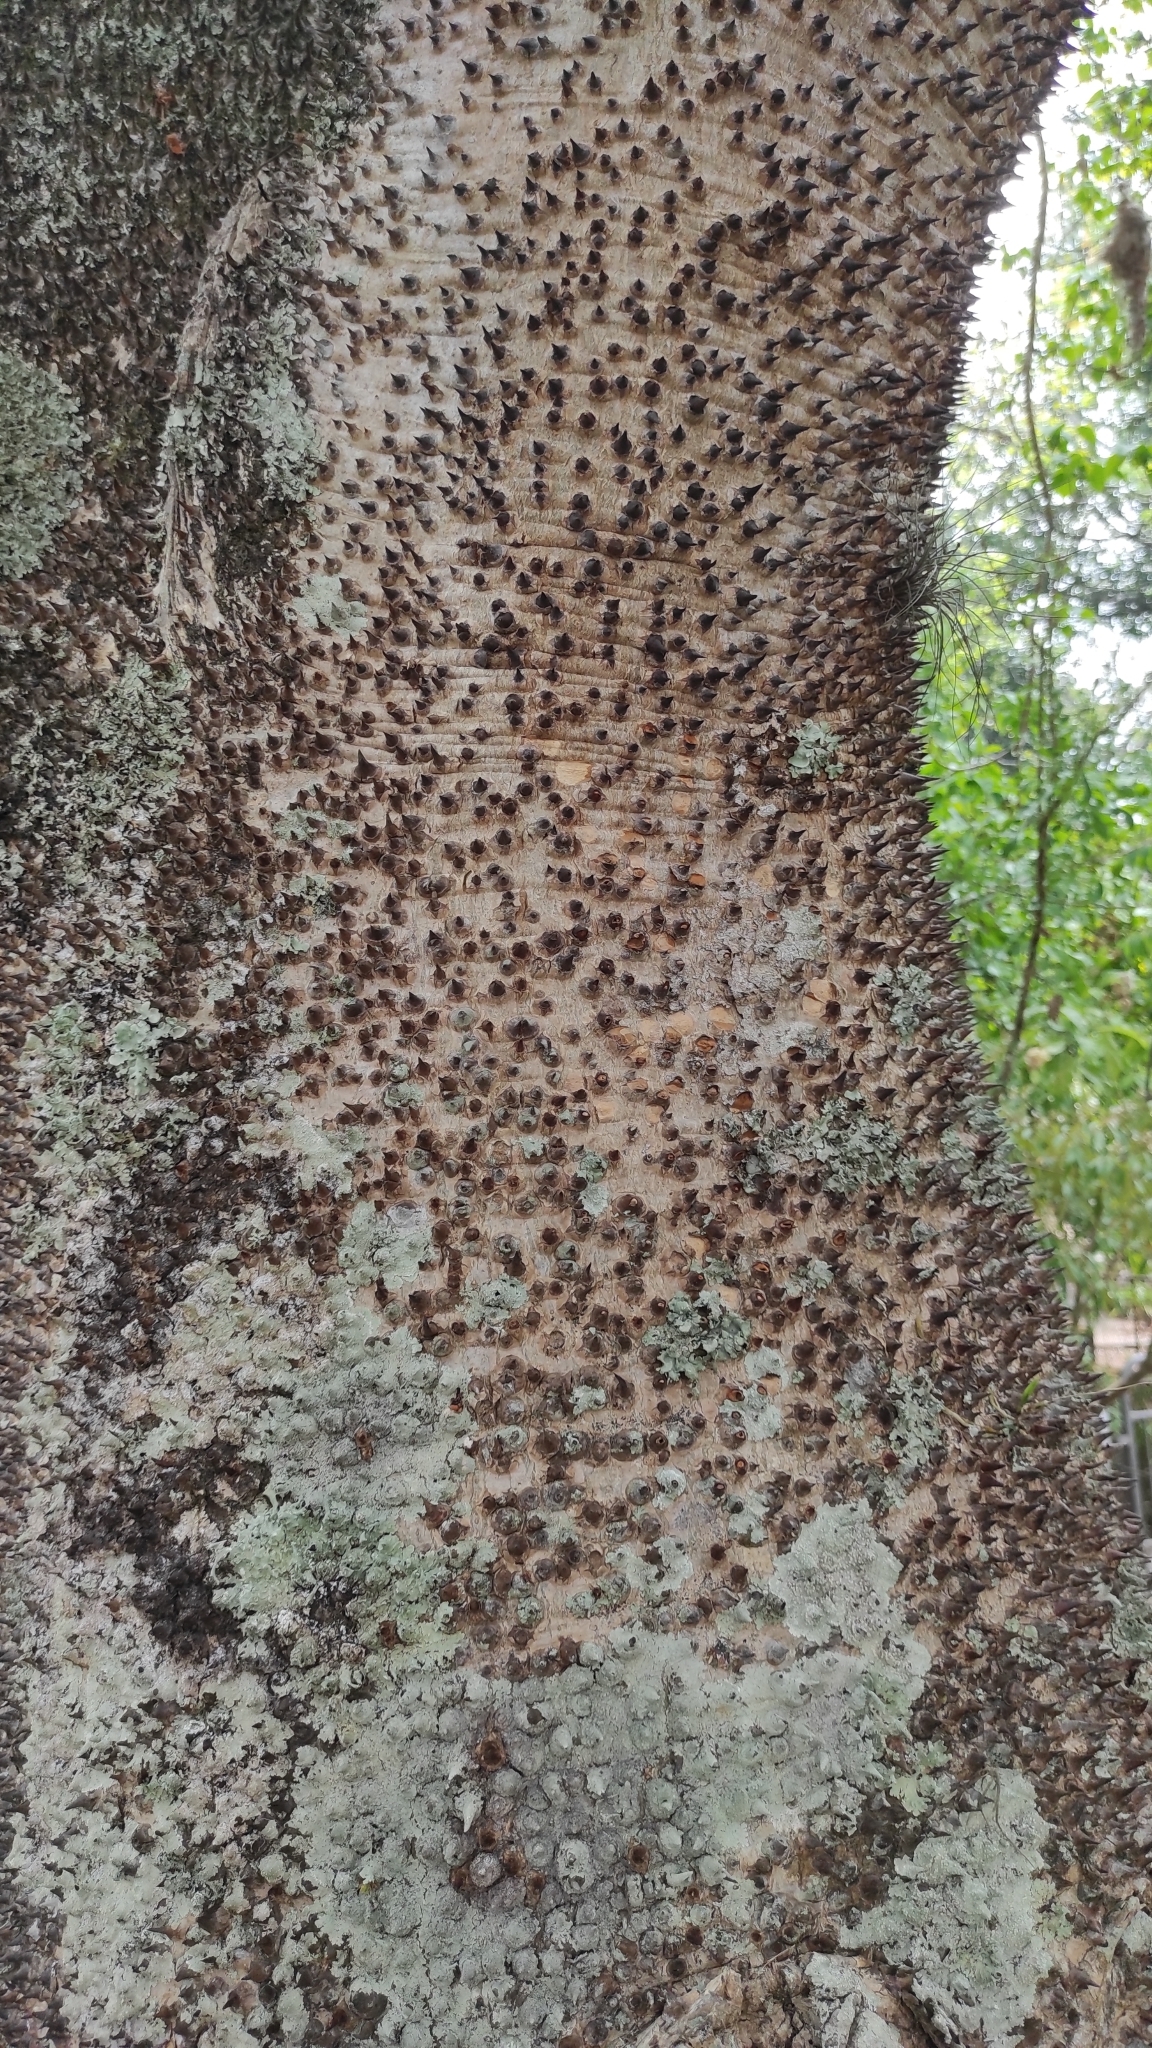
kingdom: Plantae
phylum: Tracheophyta
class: Magnoliopsida
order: Malpighiales
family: Euphorbiaceae
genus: Hura
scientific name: Hura crepitans
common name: Sandboxtree
